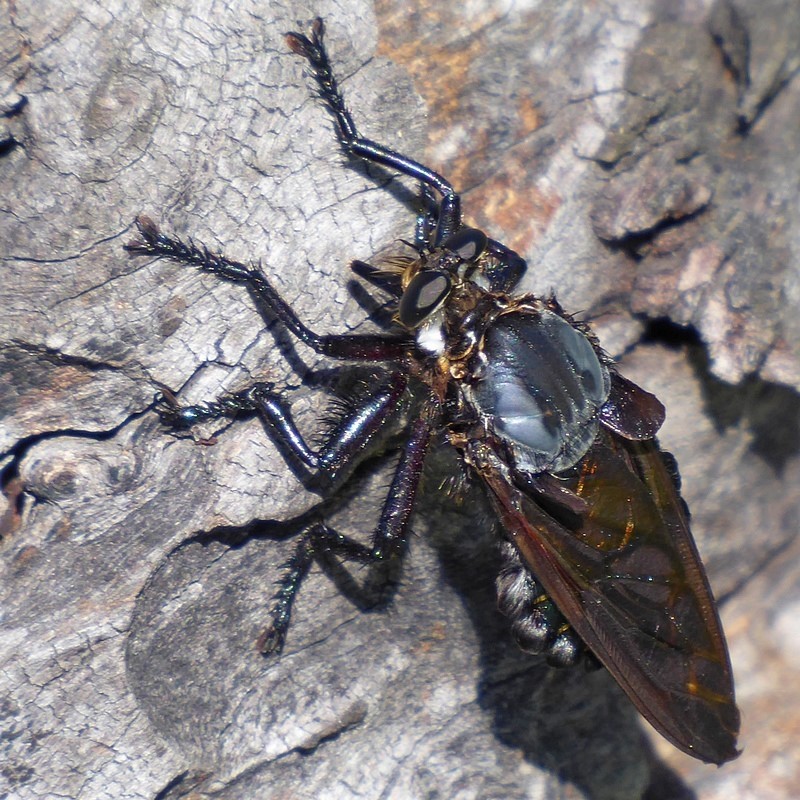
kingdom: Animalia
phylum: Arthropoda
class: Insecta
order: Diptera
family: Asilidae
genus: Blepharotes
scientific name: Blepharotes splendidissimus
